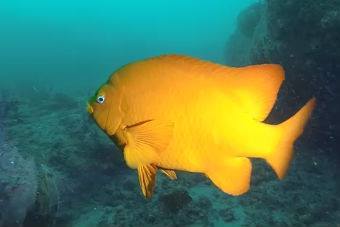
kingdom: Animalia
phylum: Chordata
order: Perciformes
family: Pomacentridae
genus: Hypsypops
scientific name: Hypsypops rubicundus
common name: Garibaldi
